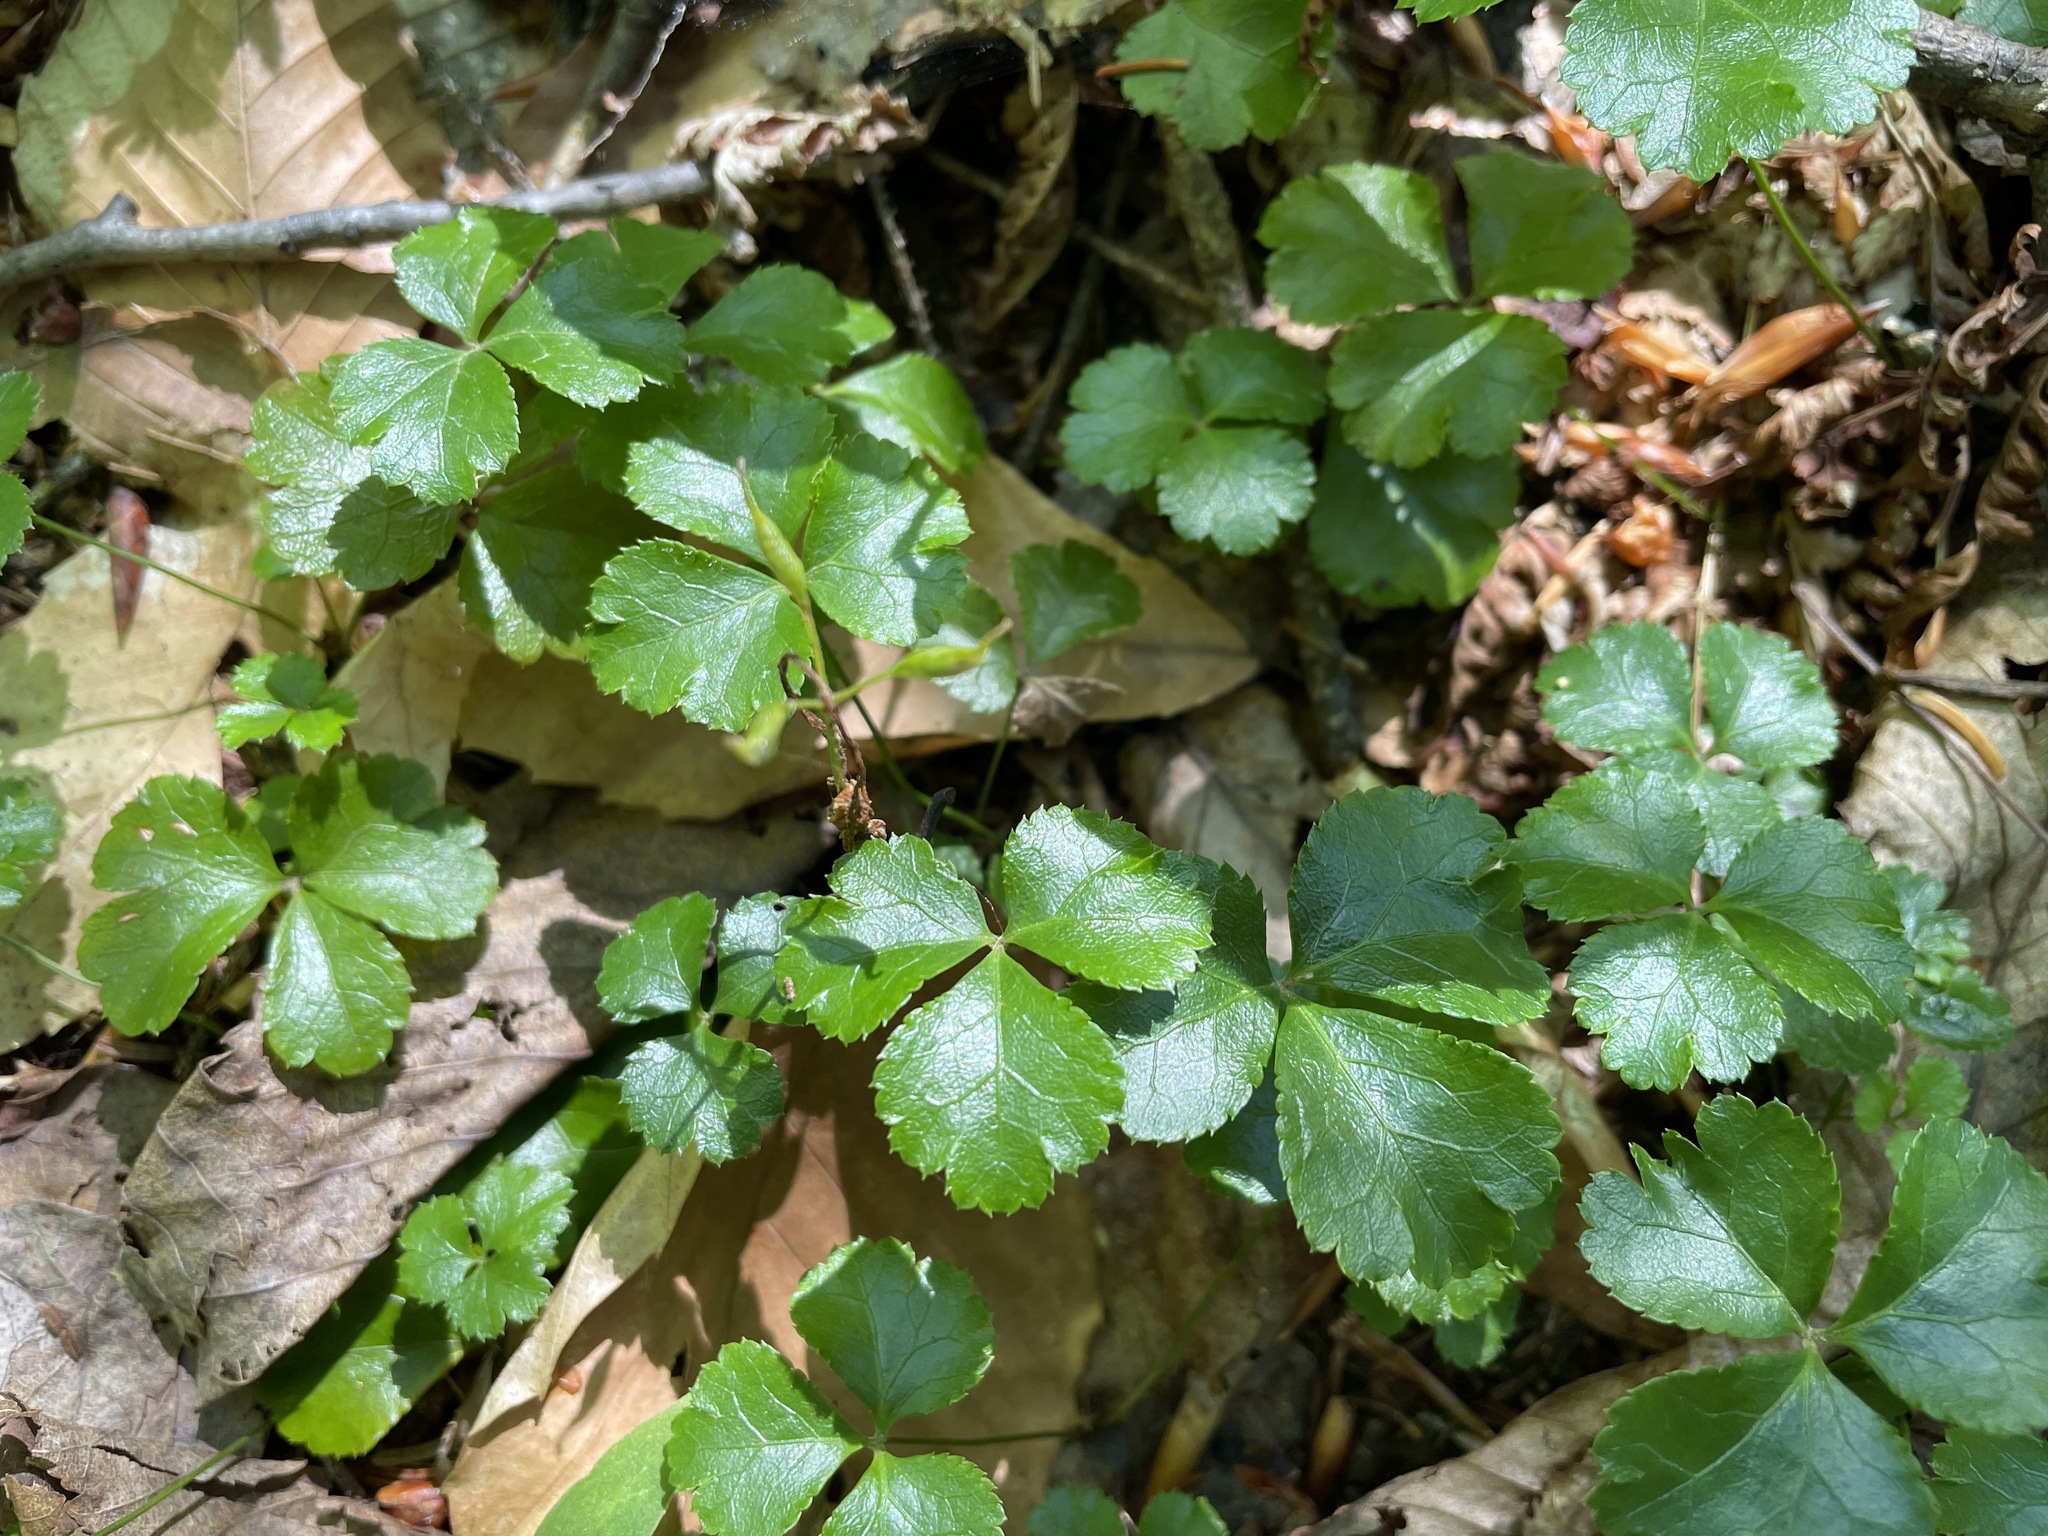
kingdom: Plantae
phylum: Tracheophyta
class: Magnoliopsida
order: Ranunculales
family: Ranunculaceae
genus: Coptis
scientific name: Coptis trifolia
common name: Canker-root
